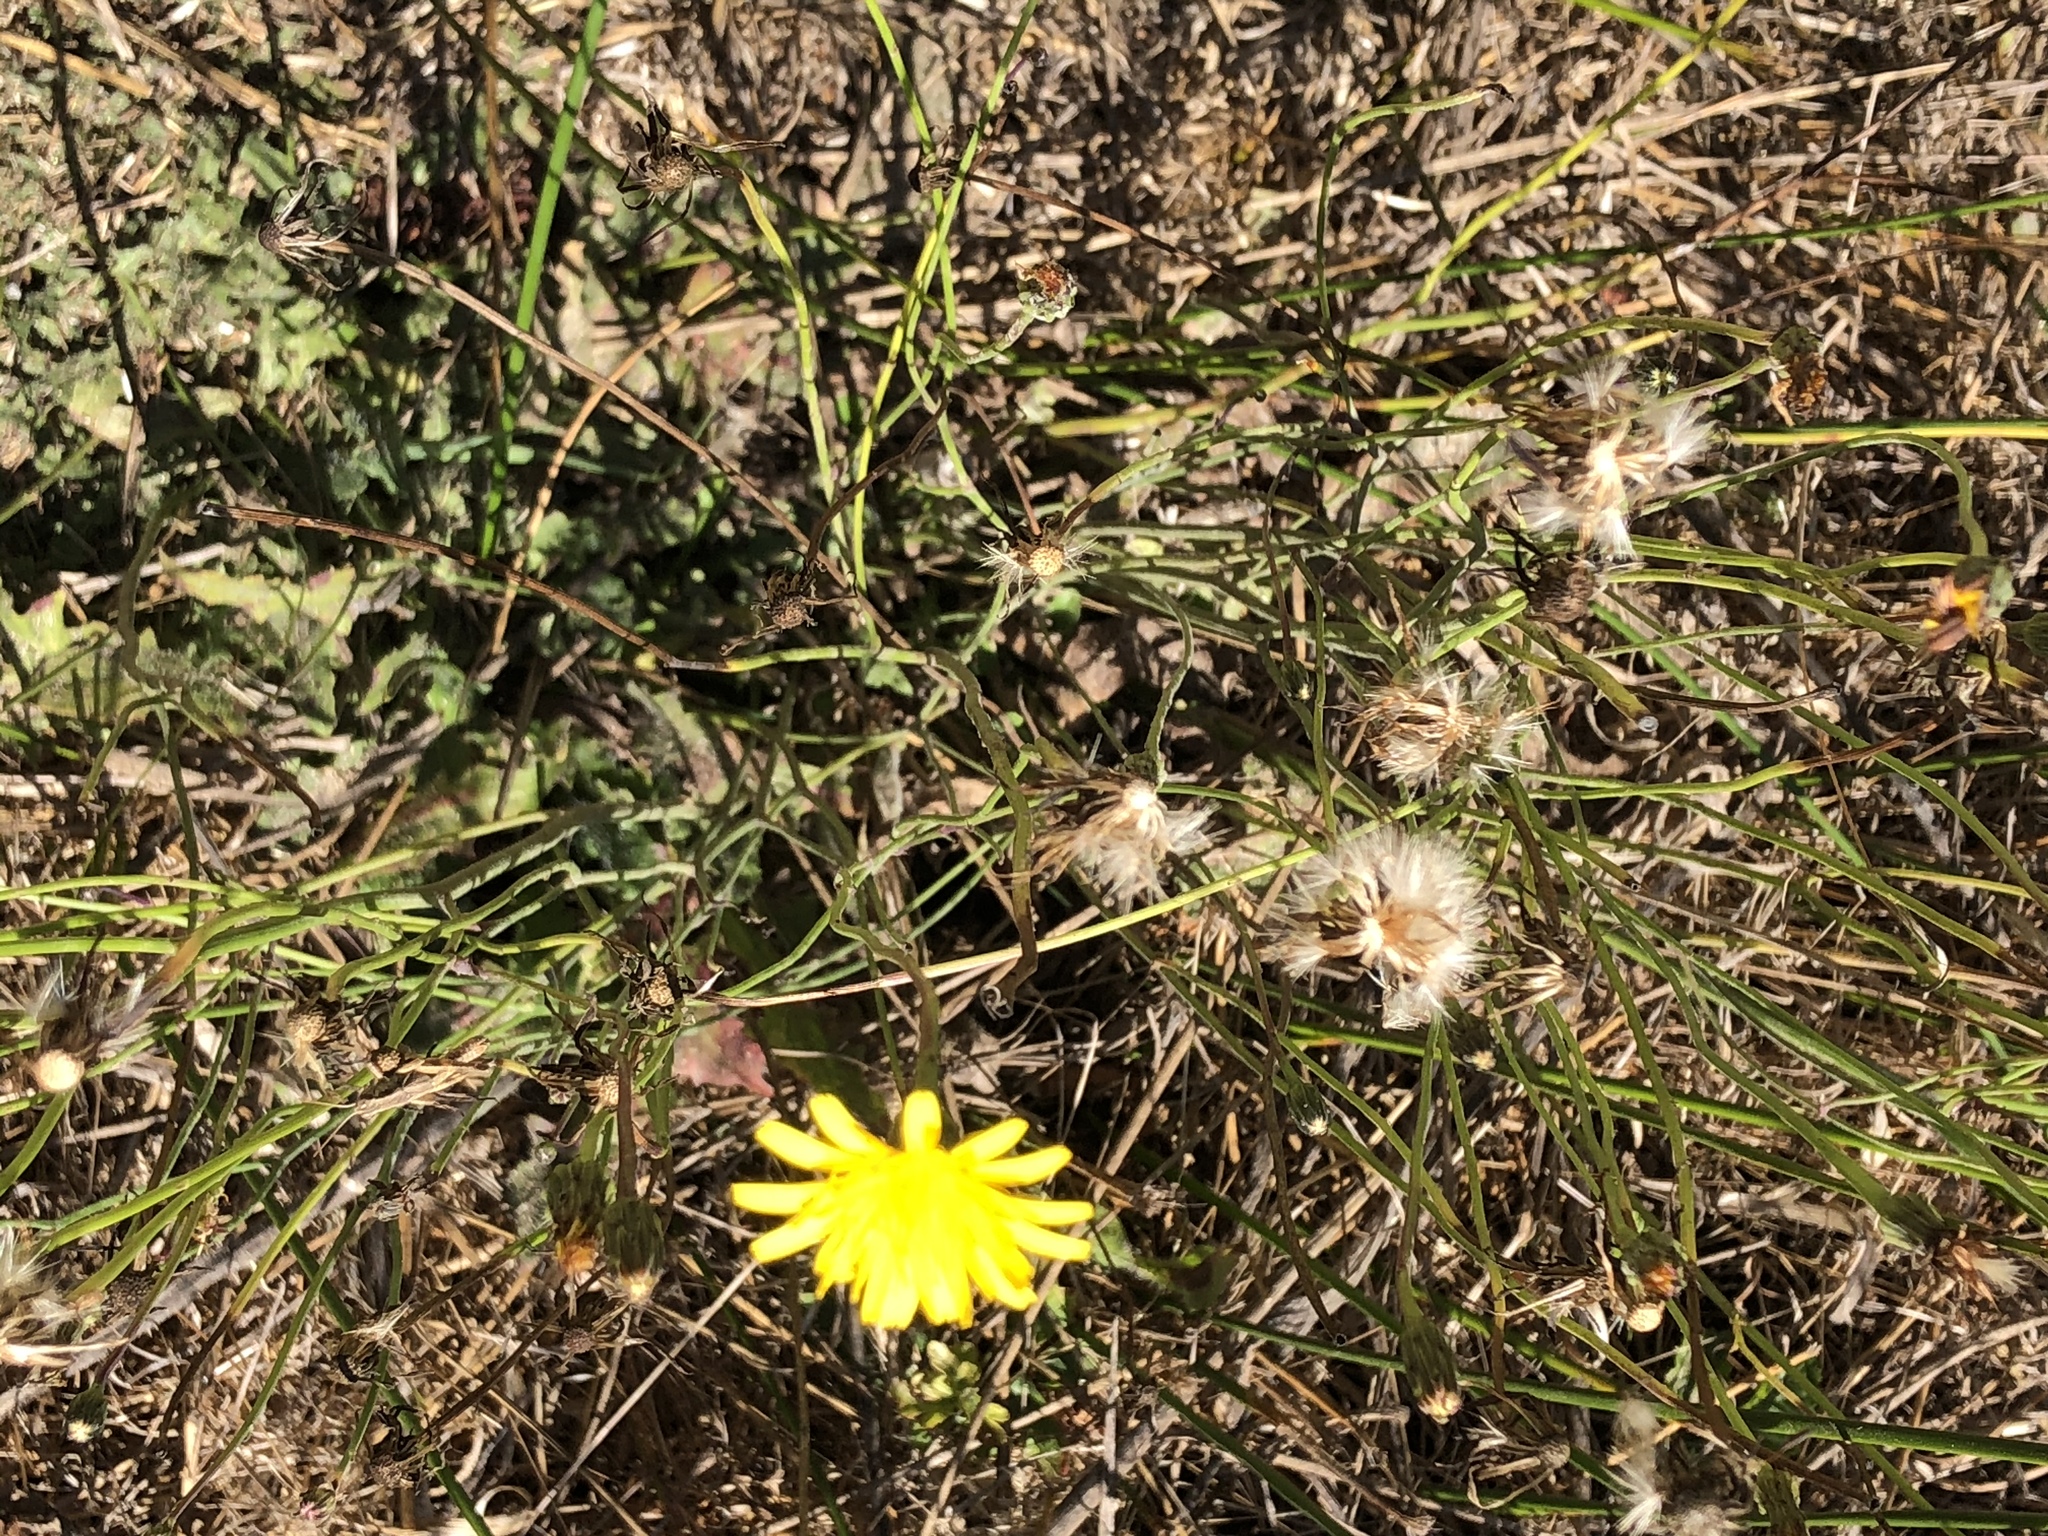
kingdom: Plantae
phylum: Tracheophyta
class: Magnoliopsida
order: Asterales
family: Asteraceae
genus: Hypochaeris
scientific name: Hypochaeris radicata
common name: Flatweed
